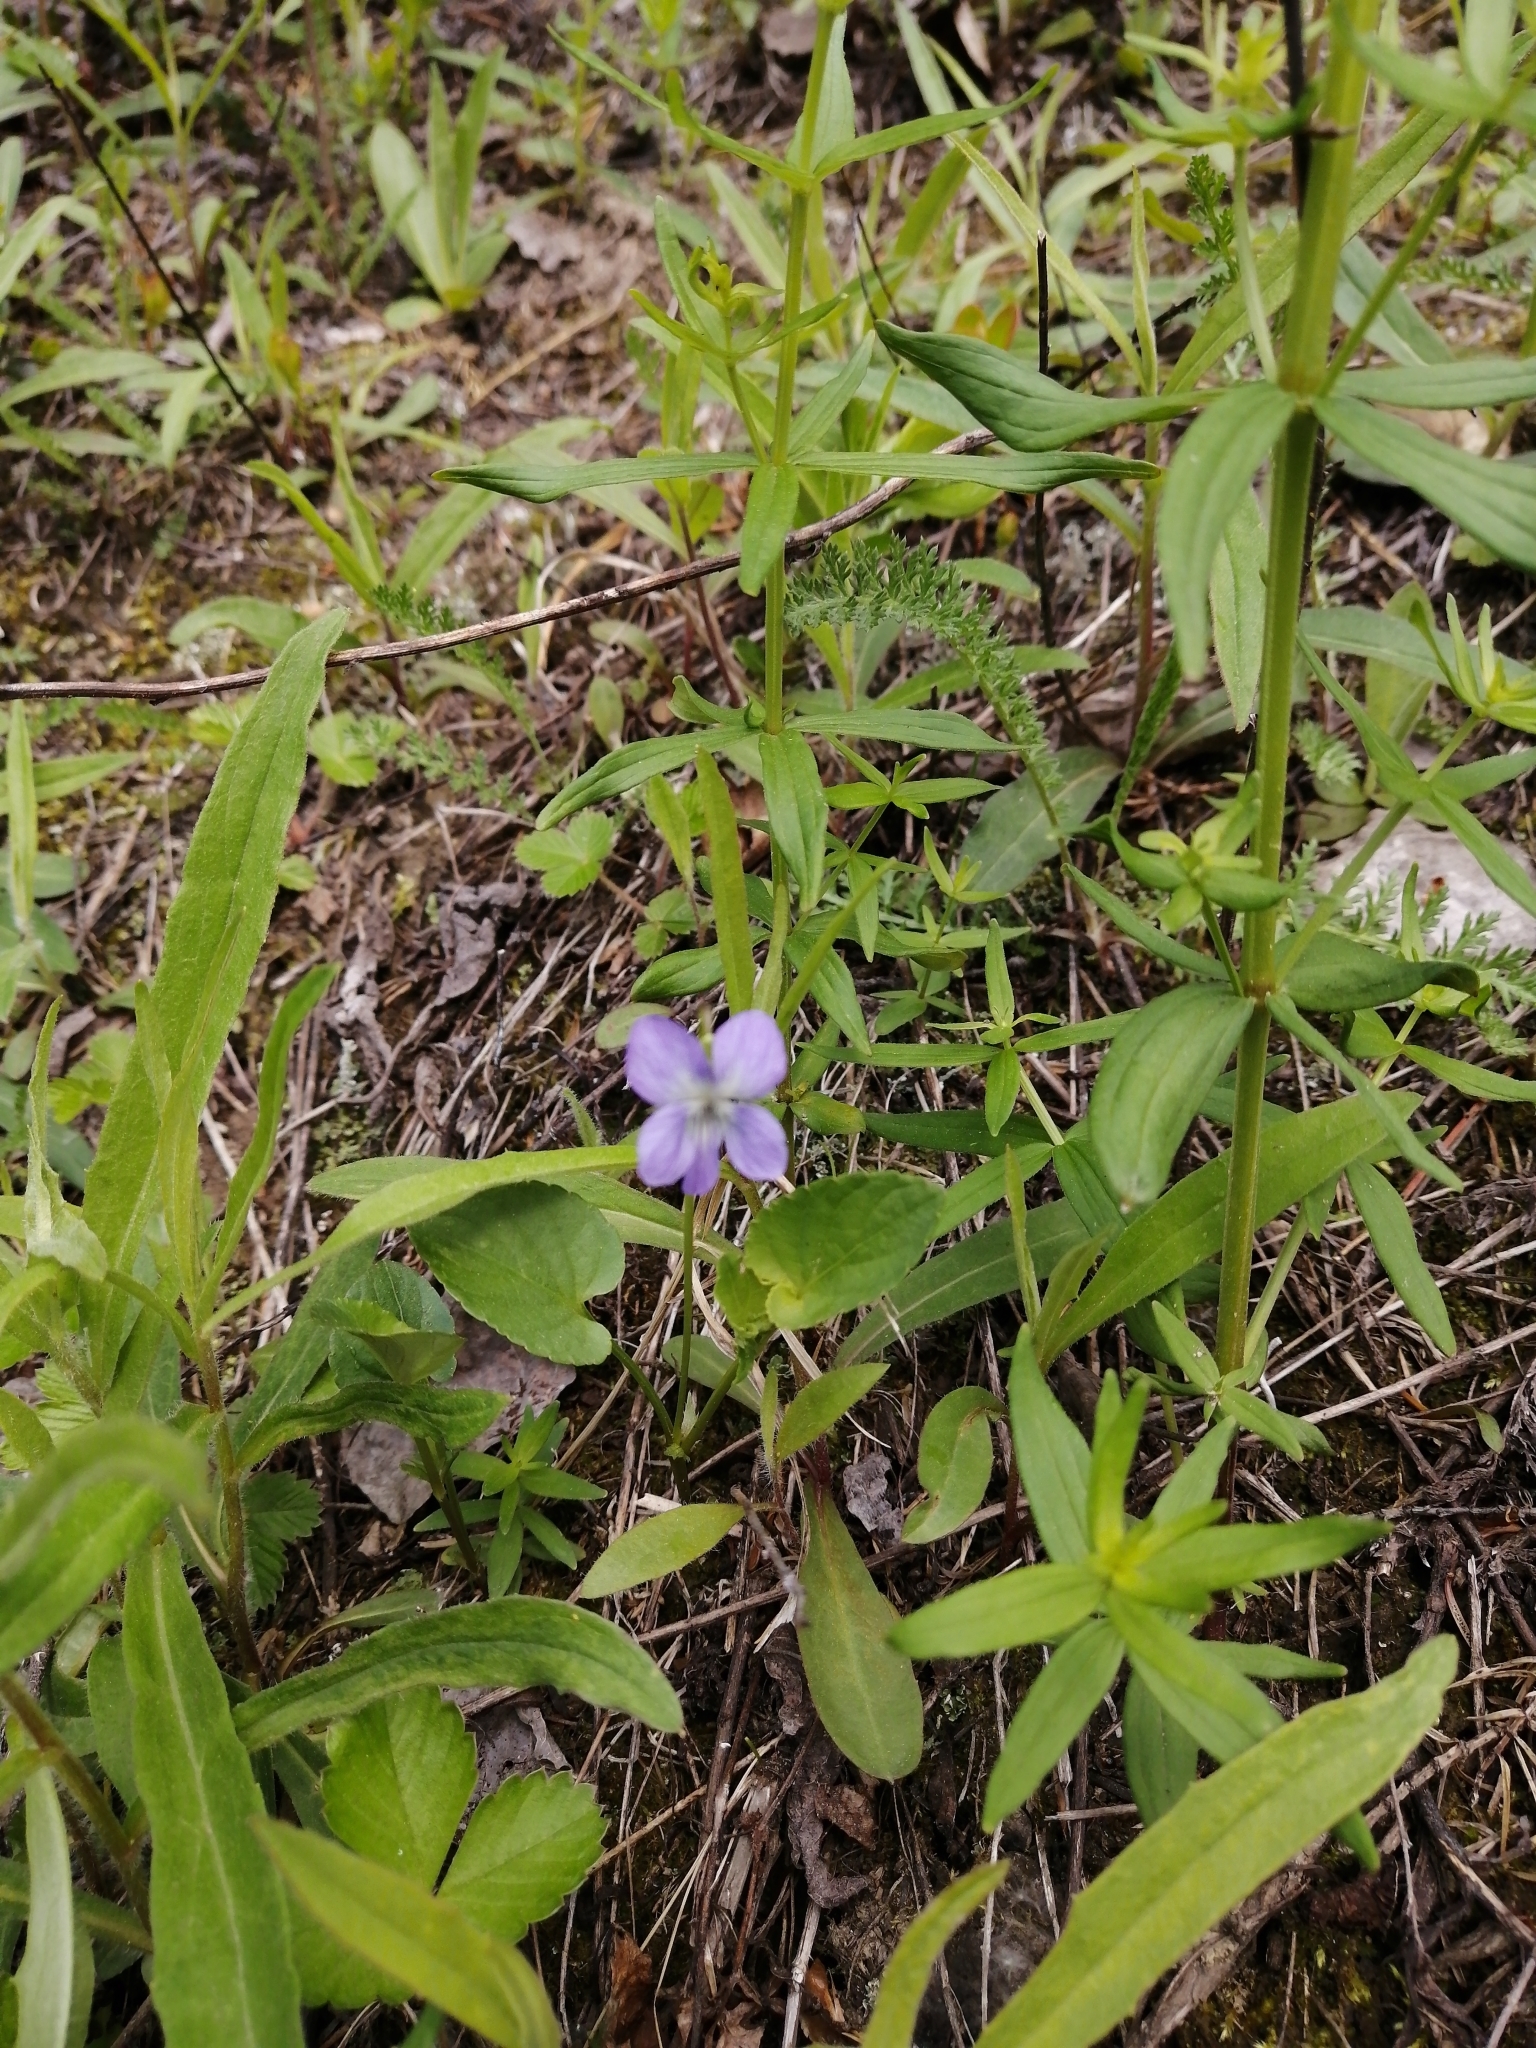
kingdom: Plantae
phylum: Tracheophyta
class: Magnoliopsida
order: Malpighiales
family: Violaceae
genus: Viola
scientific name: Viola
